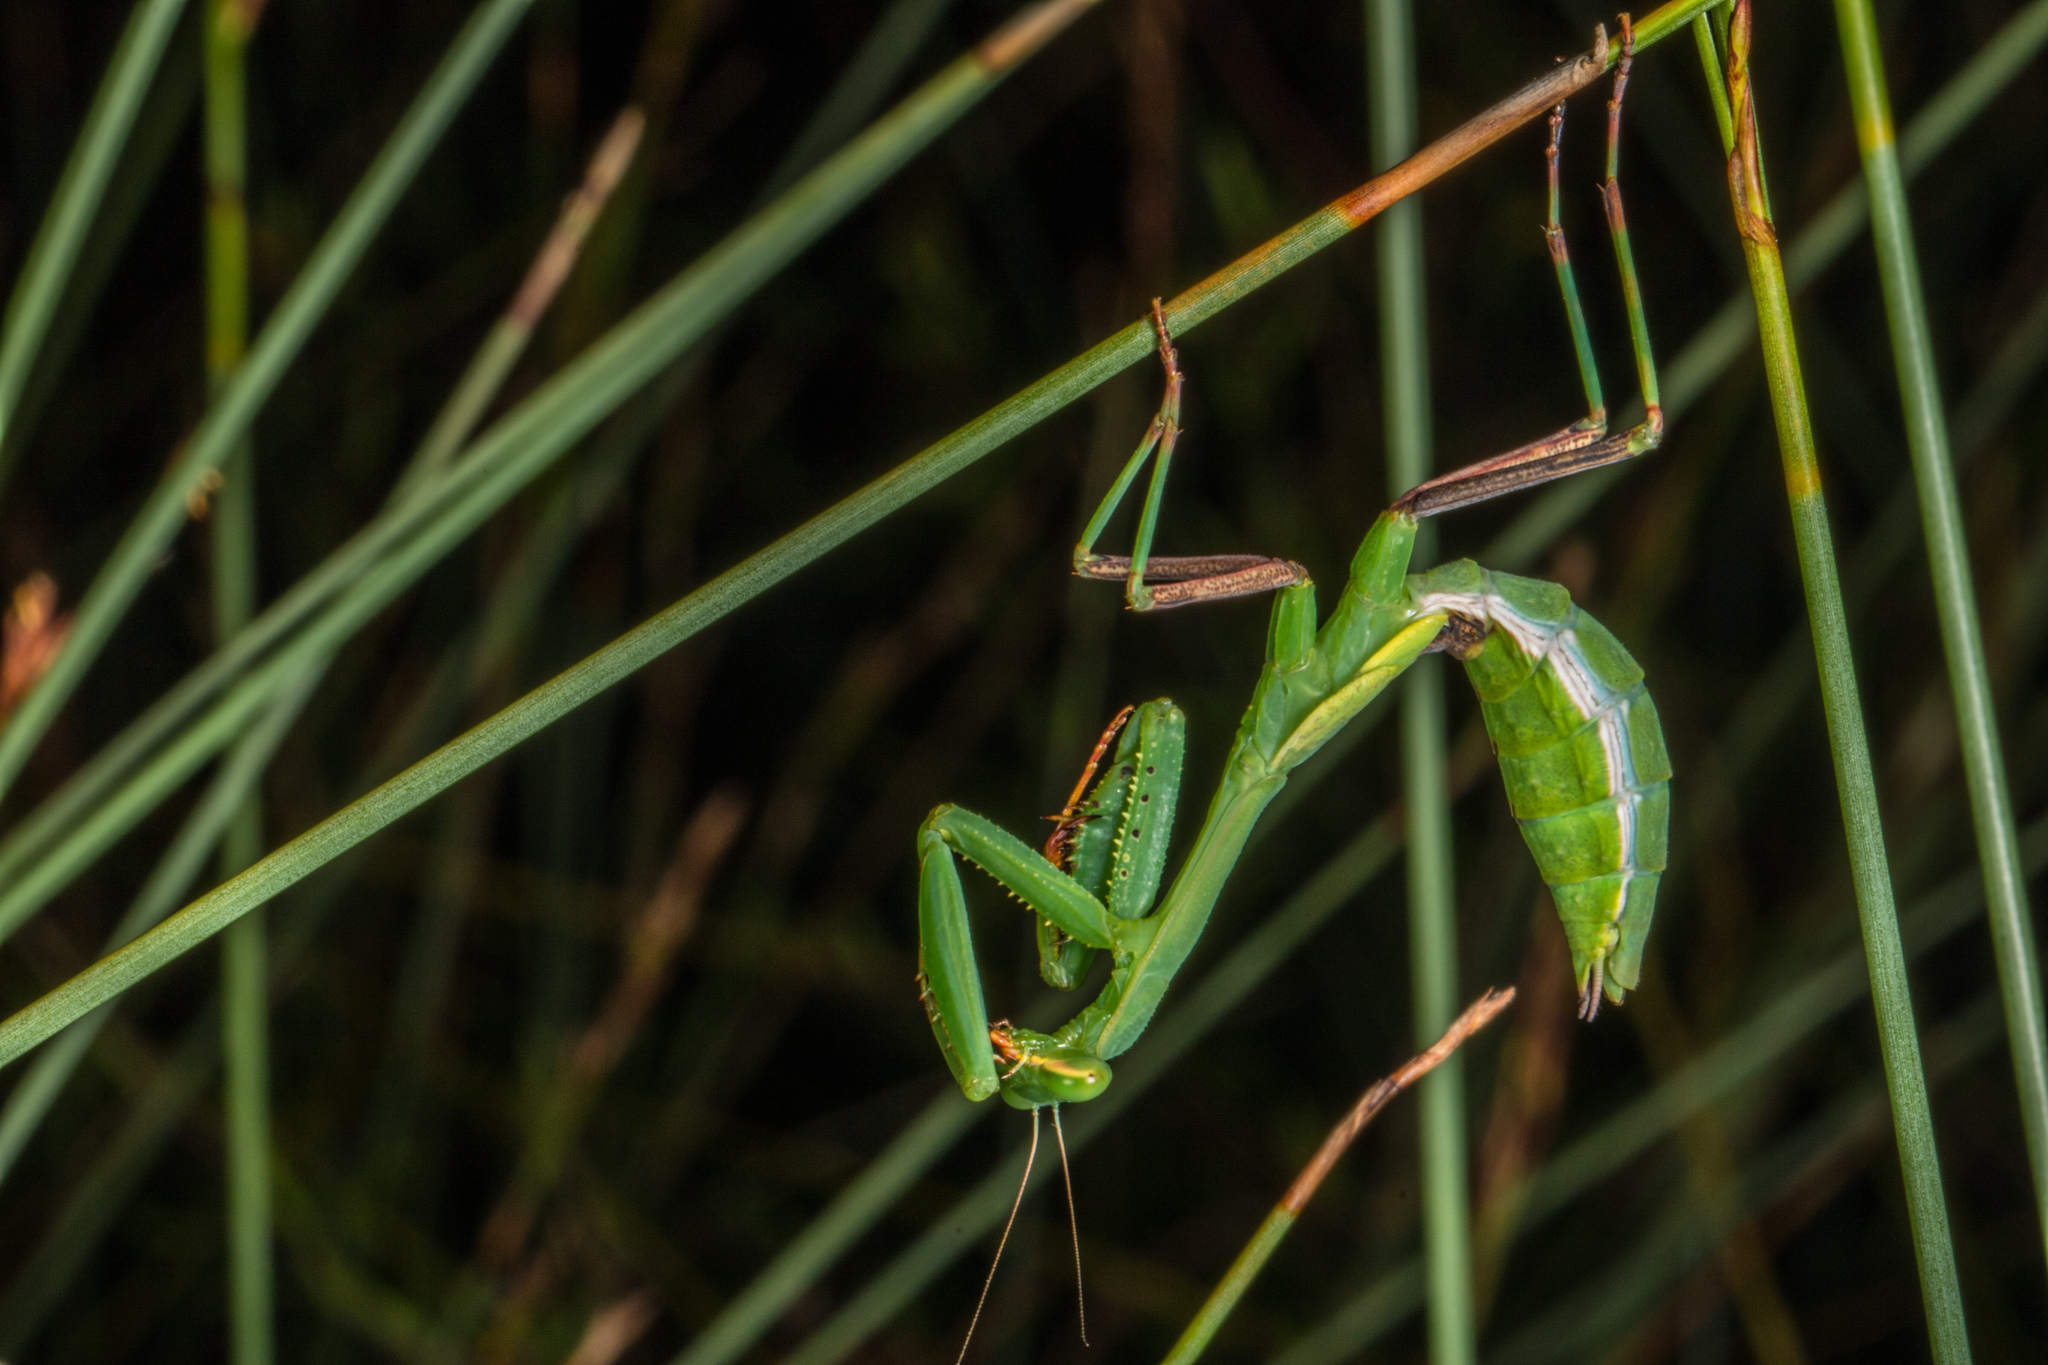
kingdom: Animalia
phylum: Arthropoda
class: Insecta
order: Mantodea
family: Miomantidae
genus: Miomantis
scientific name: Miomantis caffra
